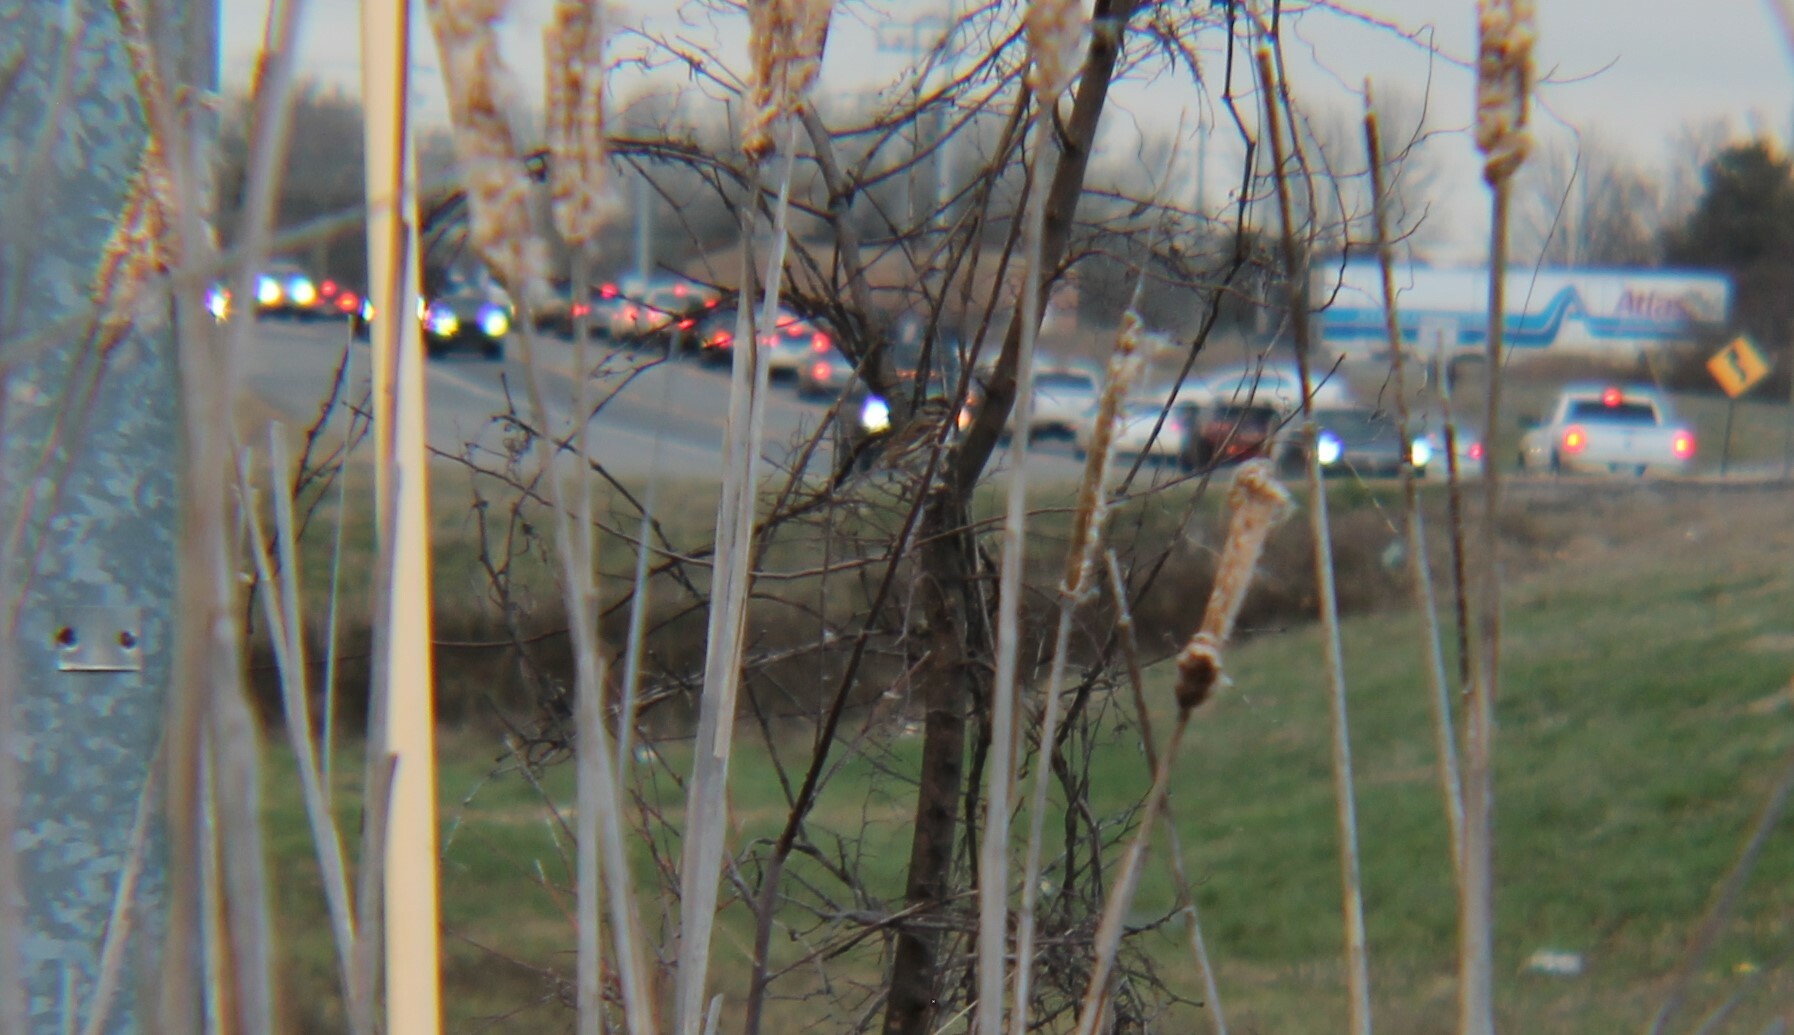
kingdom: Animalia
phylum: Chordata
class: Aves
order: Passeriformes
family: Passerellidae
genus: Melospiza
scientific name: Melospiza melodia
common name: Song sparrow
